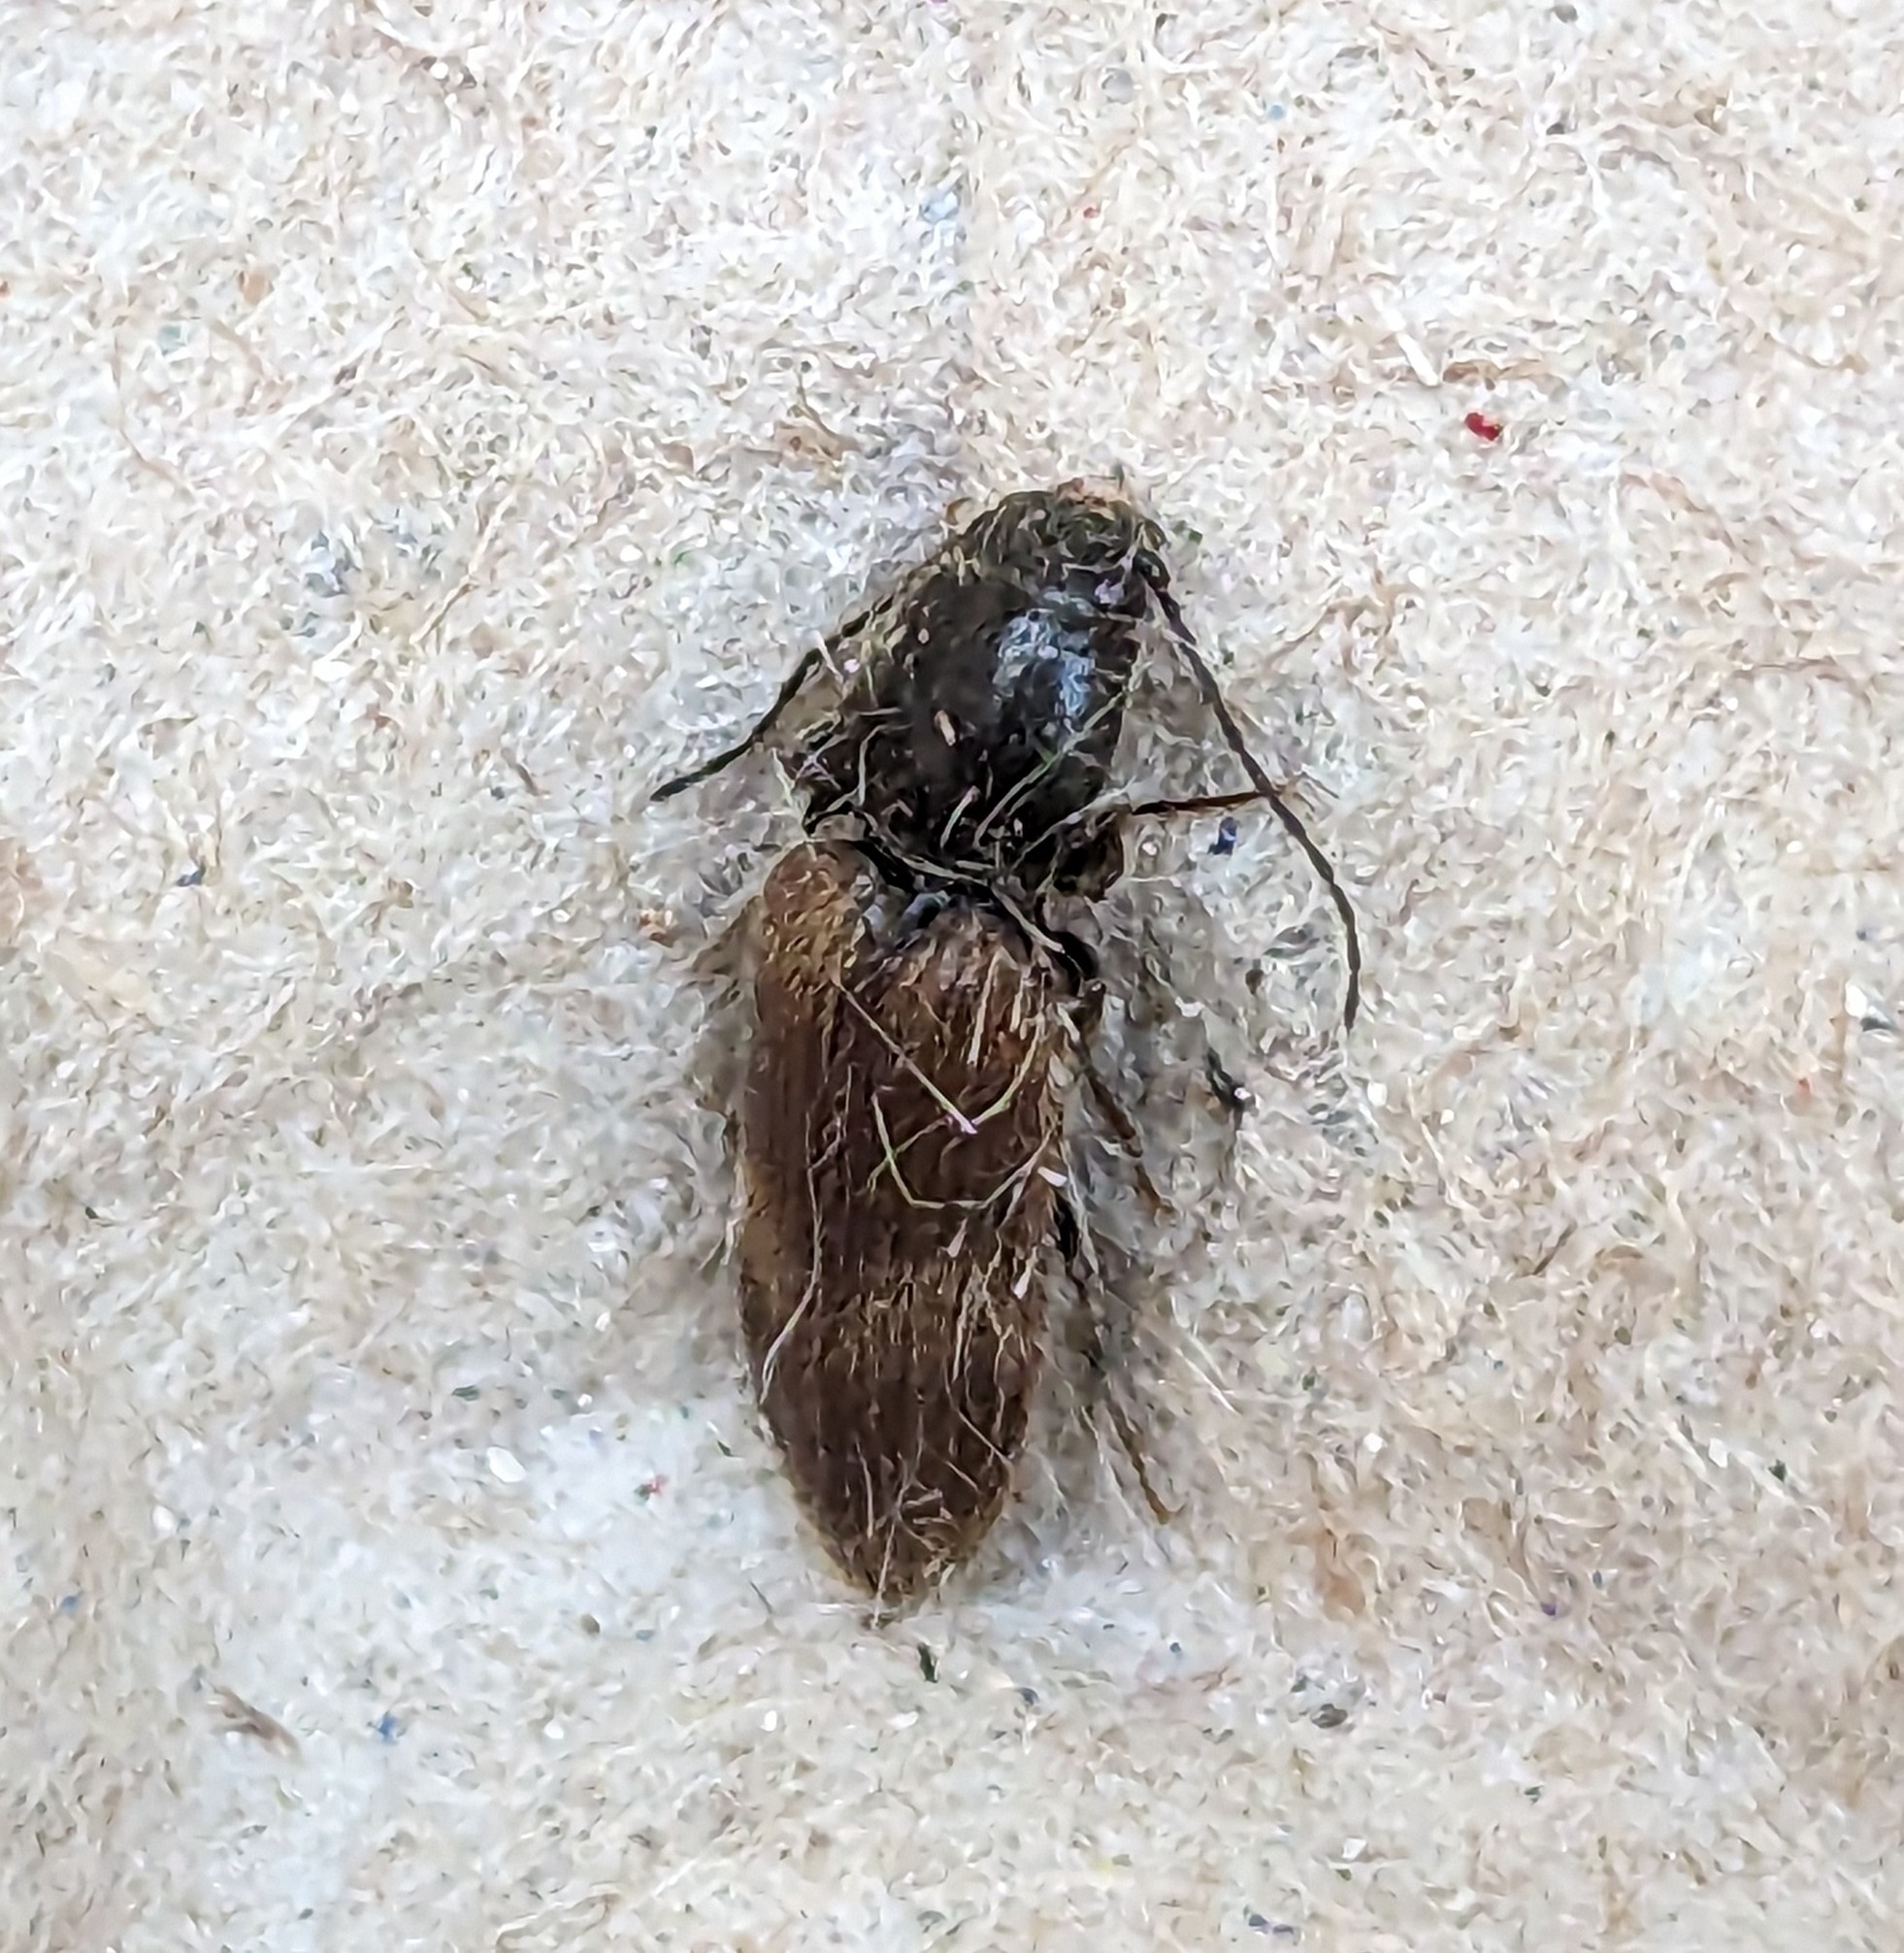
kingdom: Animalia
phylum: Arthropoda
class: Insecta
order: Coleoptera
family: Elateridae
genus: Hemicrepidius
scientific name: Hemicrepidius pallidipennis
